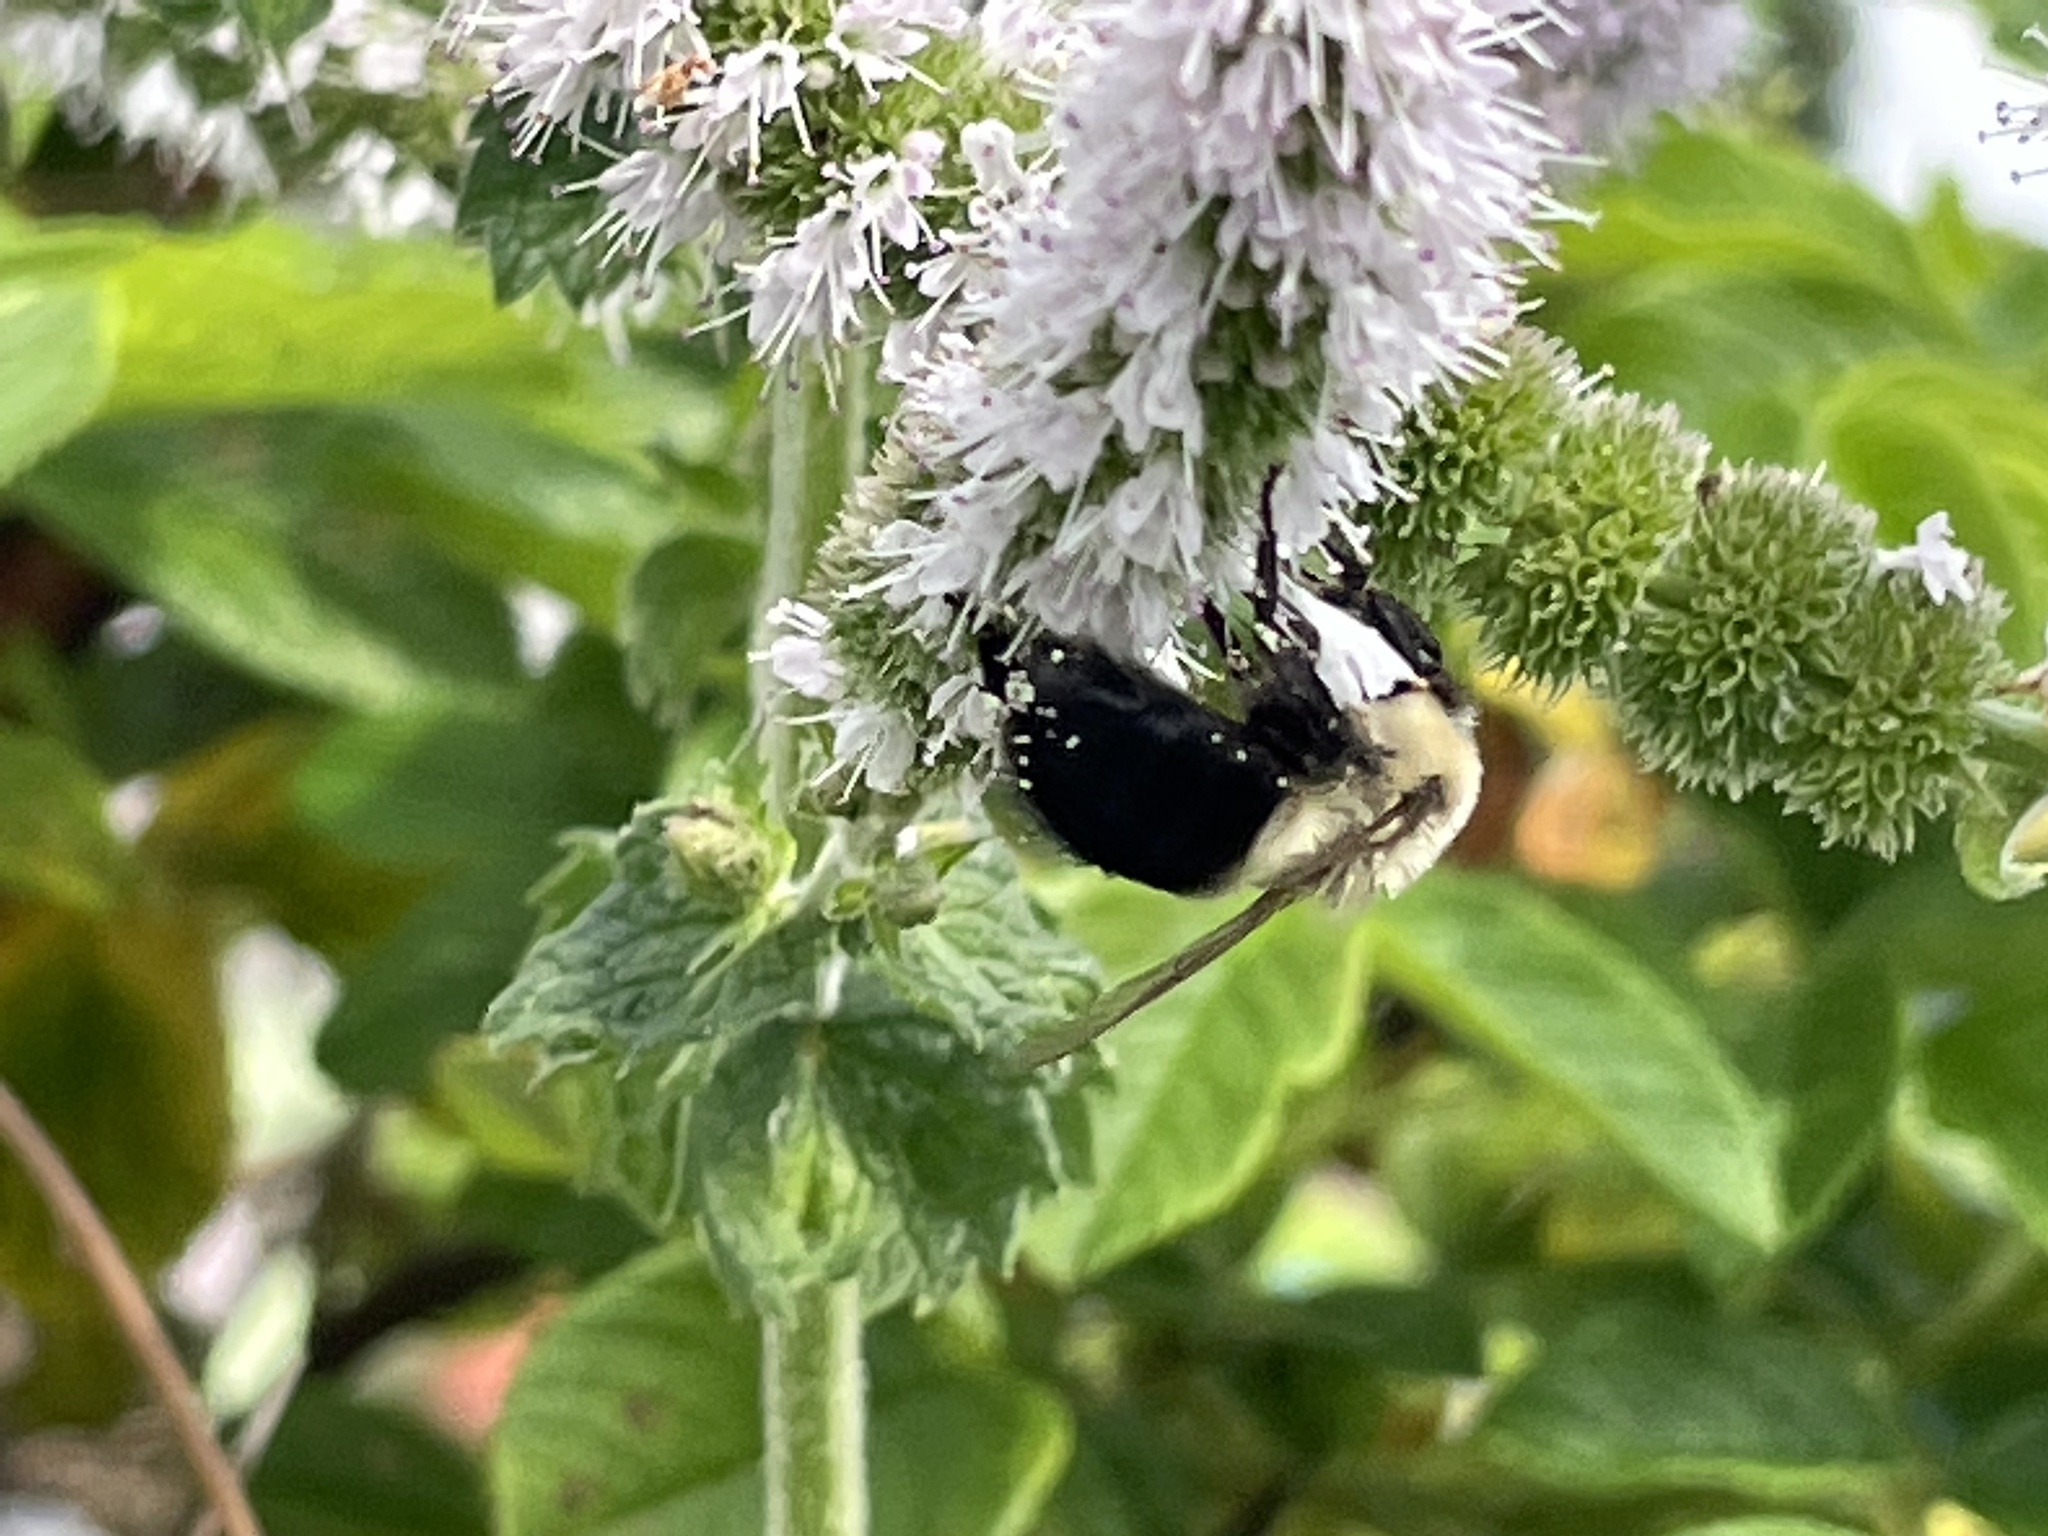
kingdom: Animalia
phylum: Arthropoda
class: Insecta
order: Hymenoptera
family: Apidae
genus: Bombus
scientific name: Bombus impatiens
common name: Common eastern bumble bee
